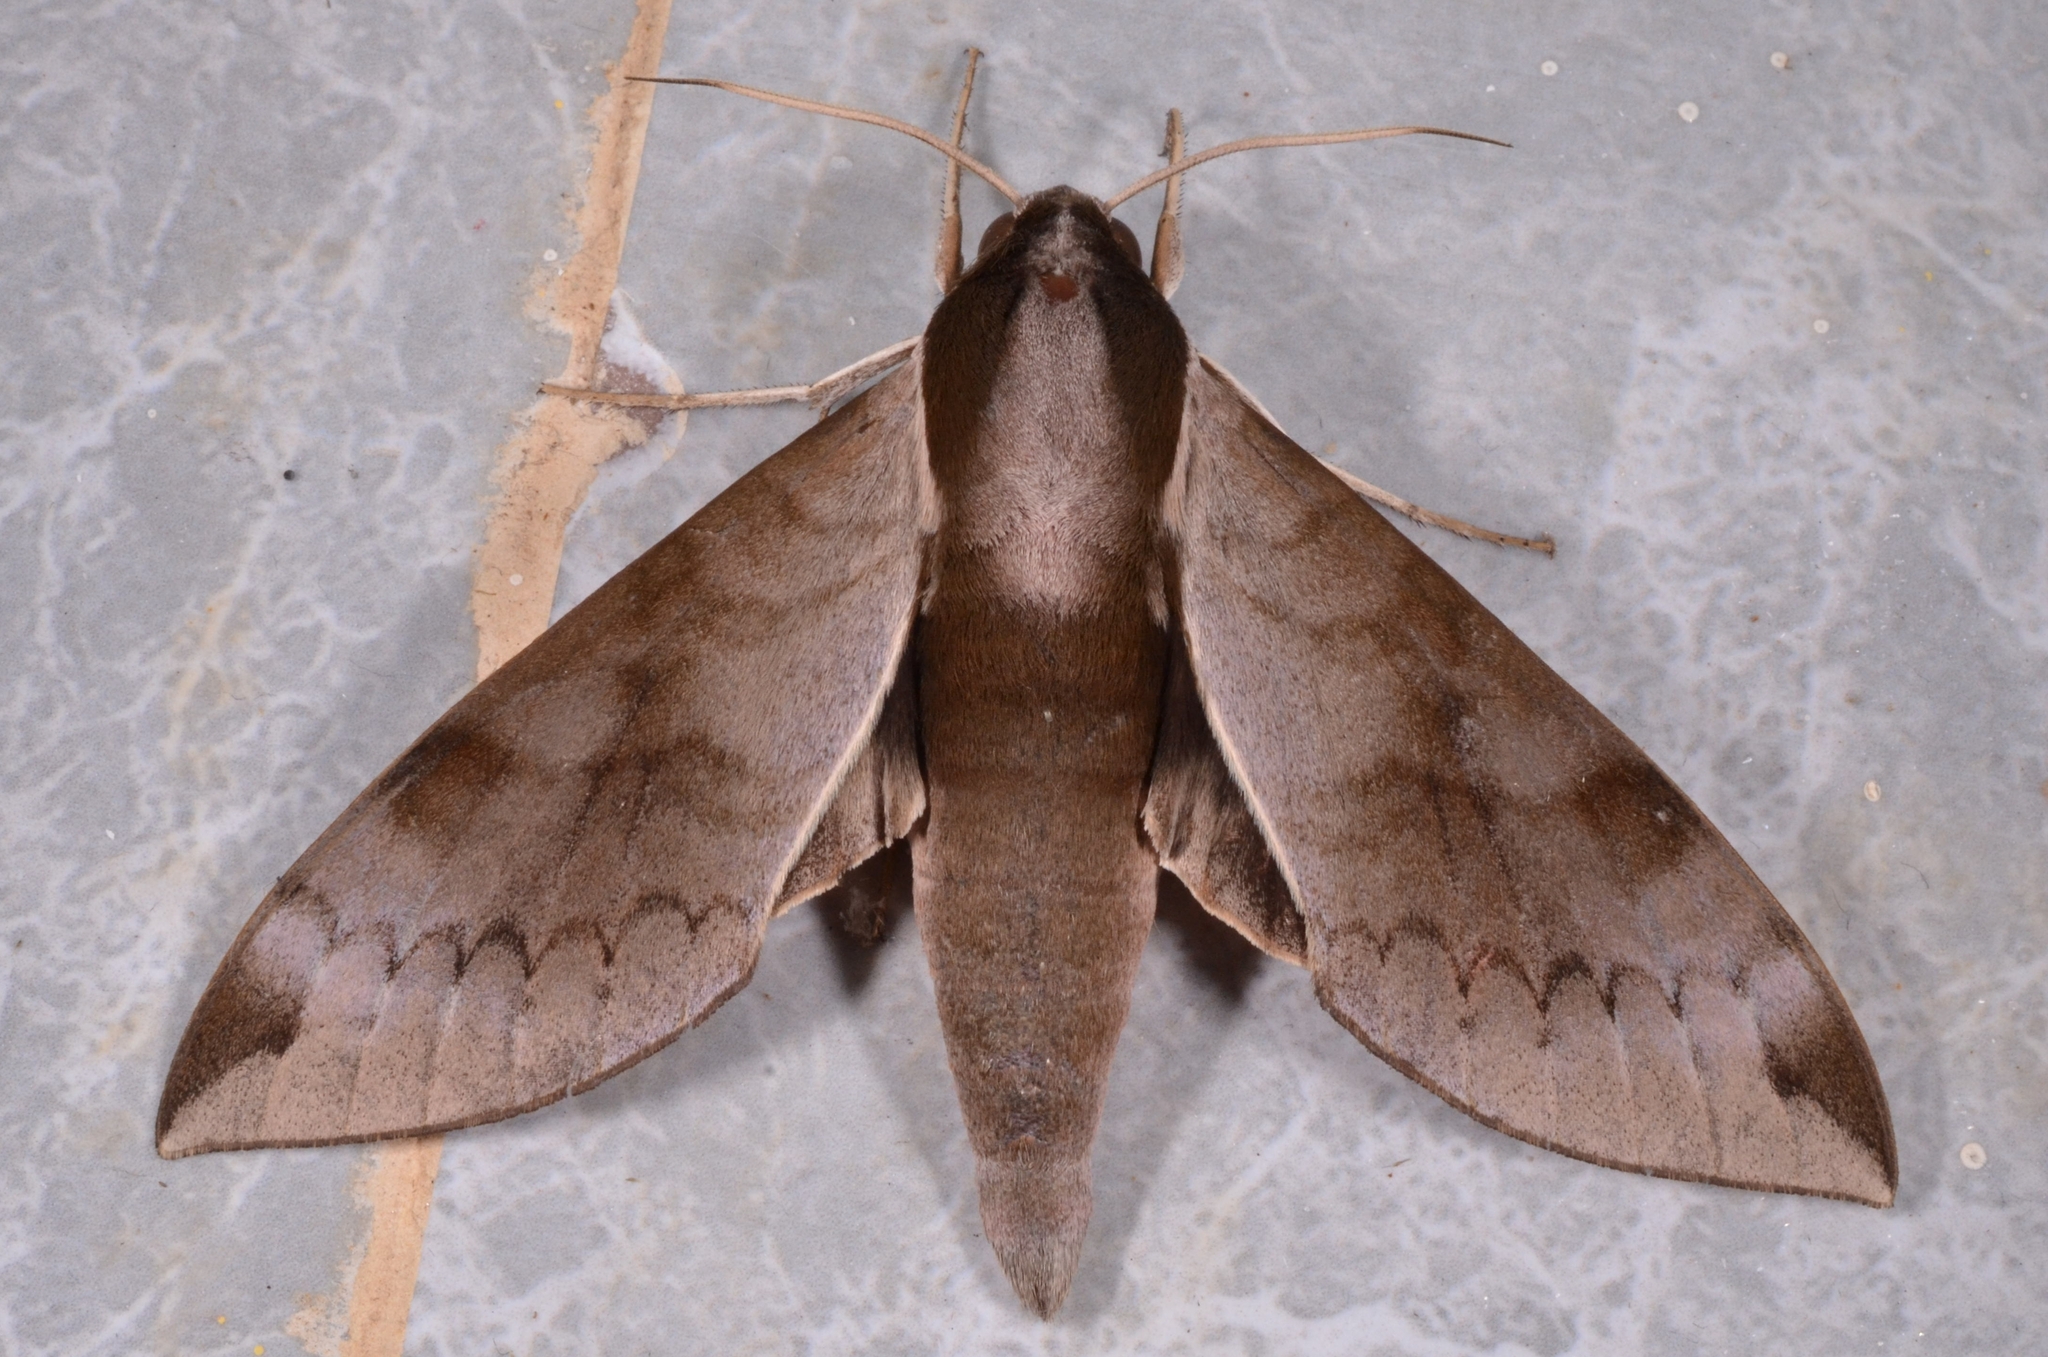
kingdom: Animalia
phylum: Arthropoda
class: Insecta
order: Lepidoptera
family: Sphingidae
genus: Acosmerycoides
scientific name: Acosmerycoides harterti
